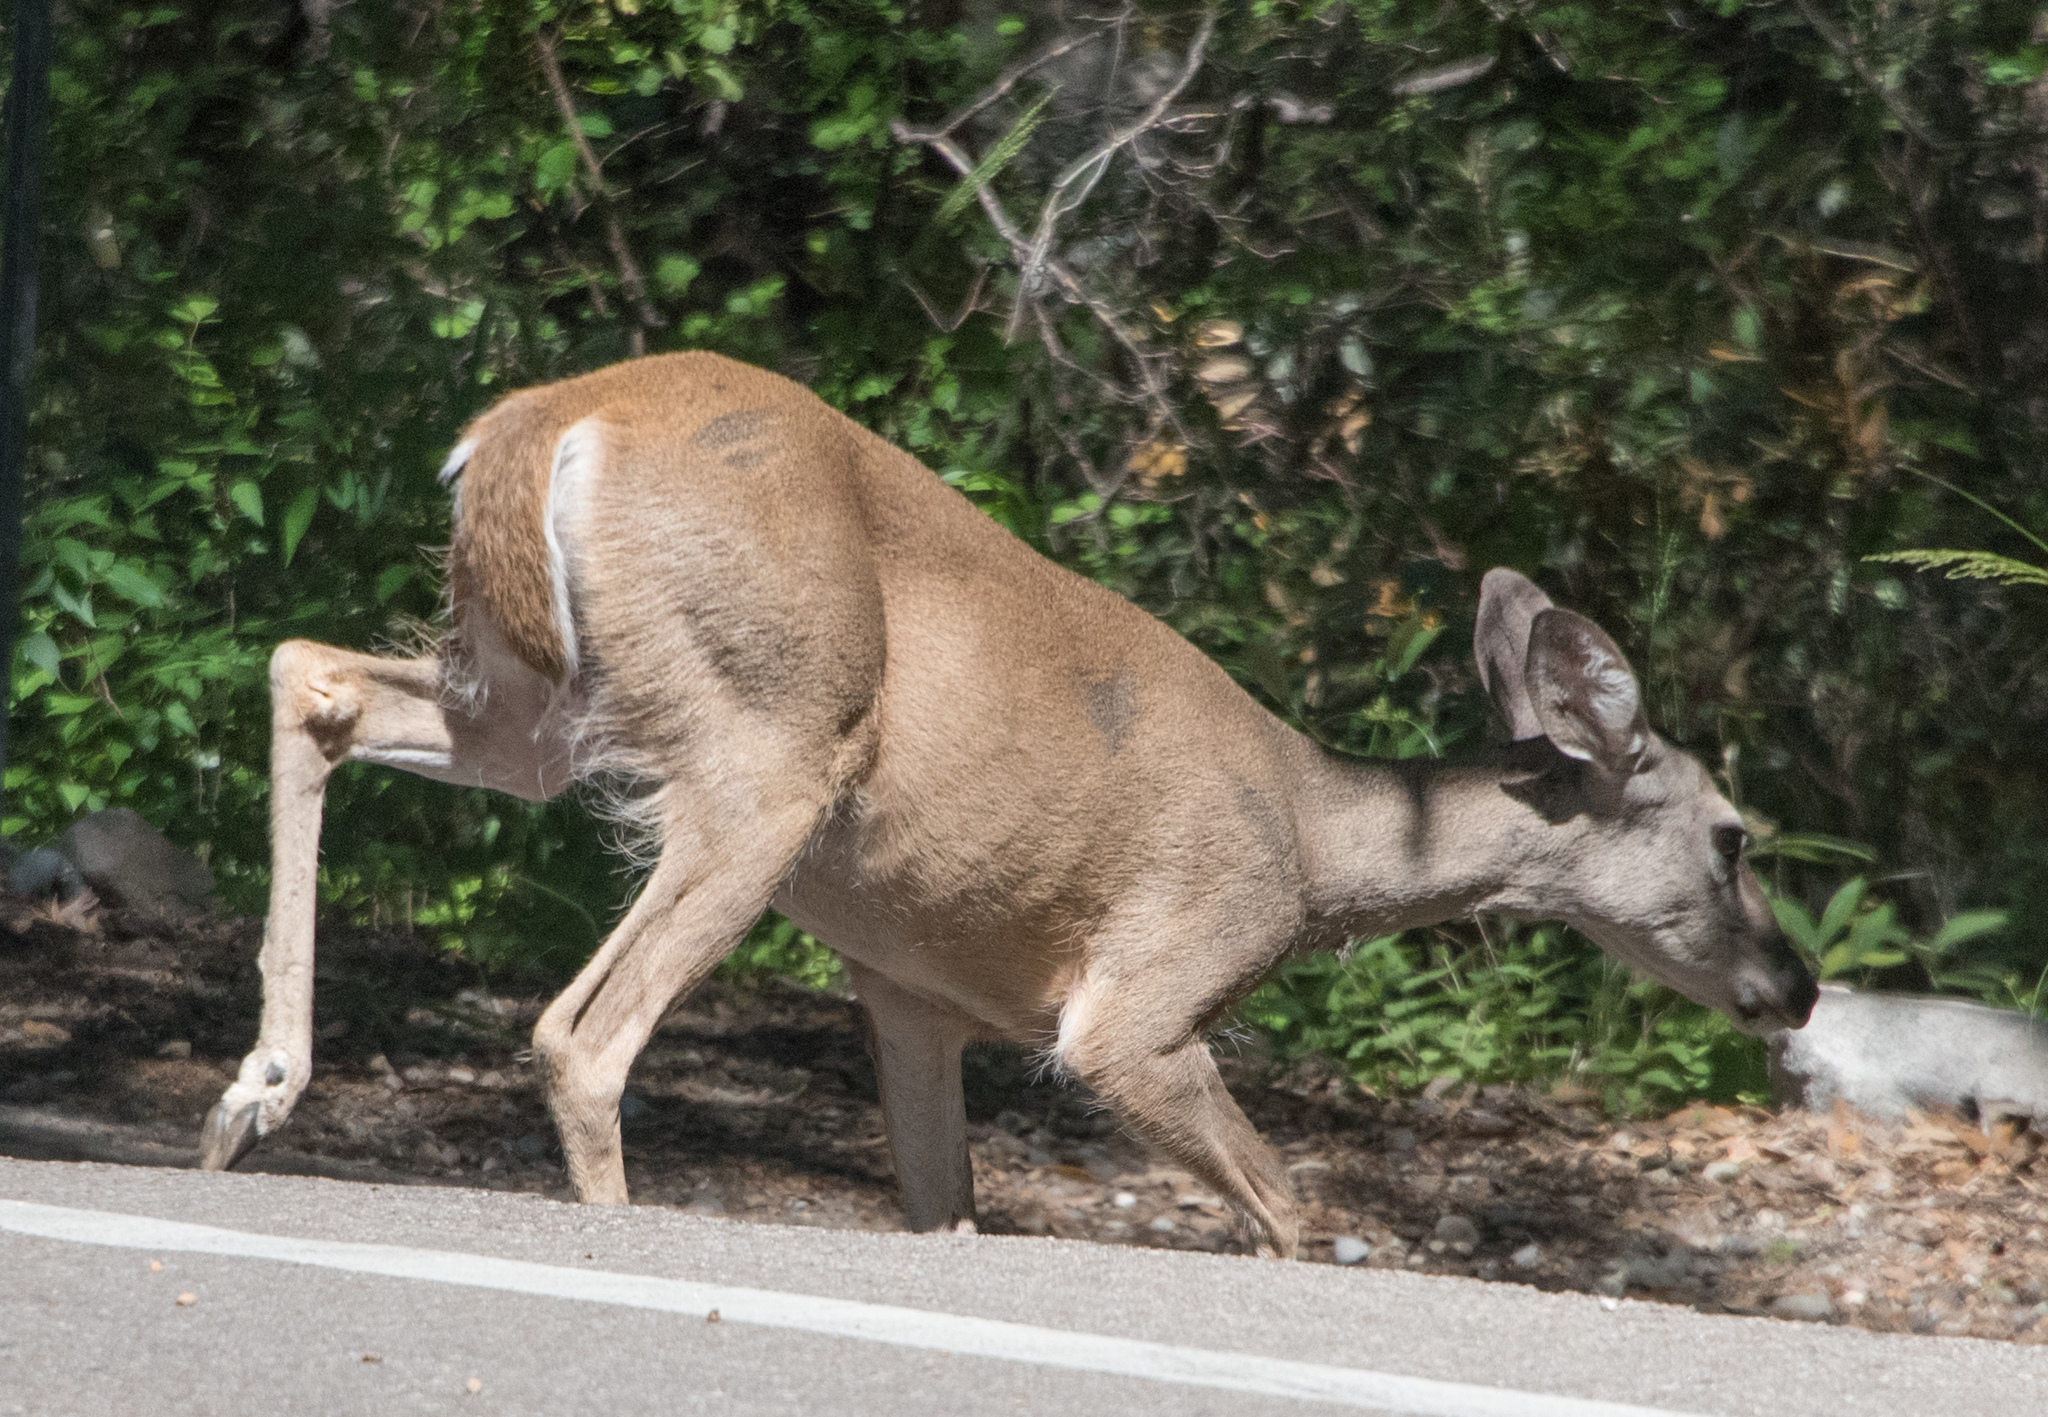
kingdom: Animalia
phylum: Chordata
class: Mammalia
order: Artiodactyla
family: Cervidae
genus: Odocoileus
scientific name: Odocoileus virginianus
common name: White-tailed deer
